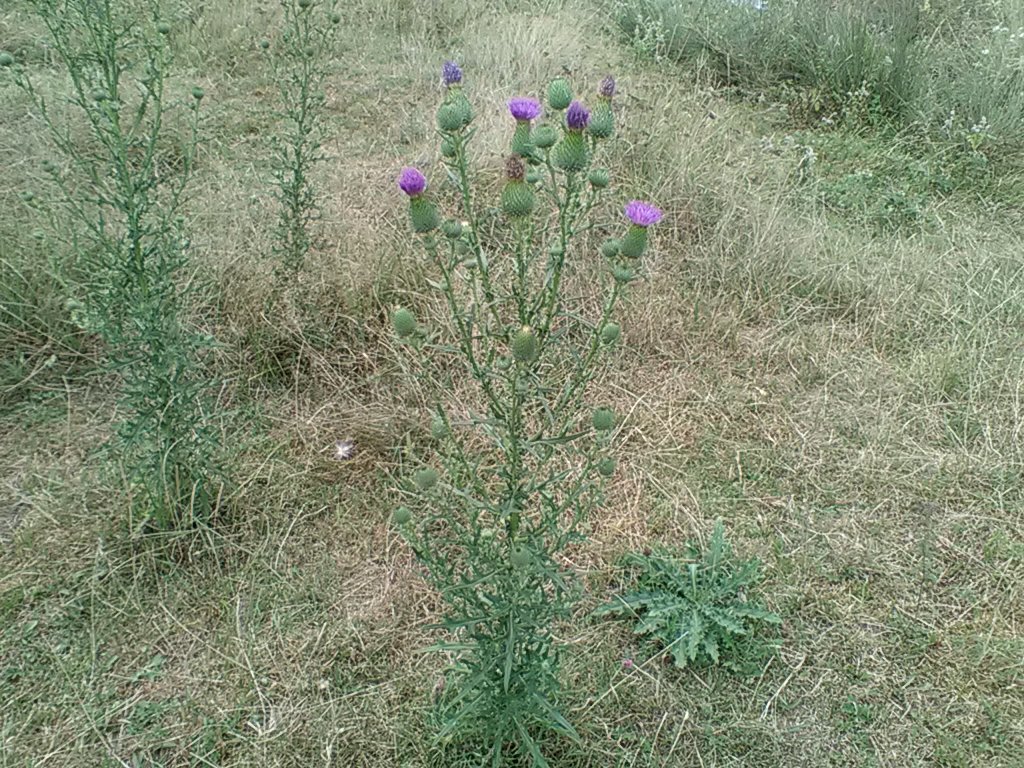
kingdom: Plantae
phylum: Tracheophyta
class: Magnoliopsida
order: Asterales
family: Asteraceae
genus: Cirsium
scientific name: Cirsium vulgare
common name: Bull thistle
